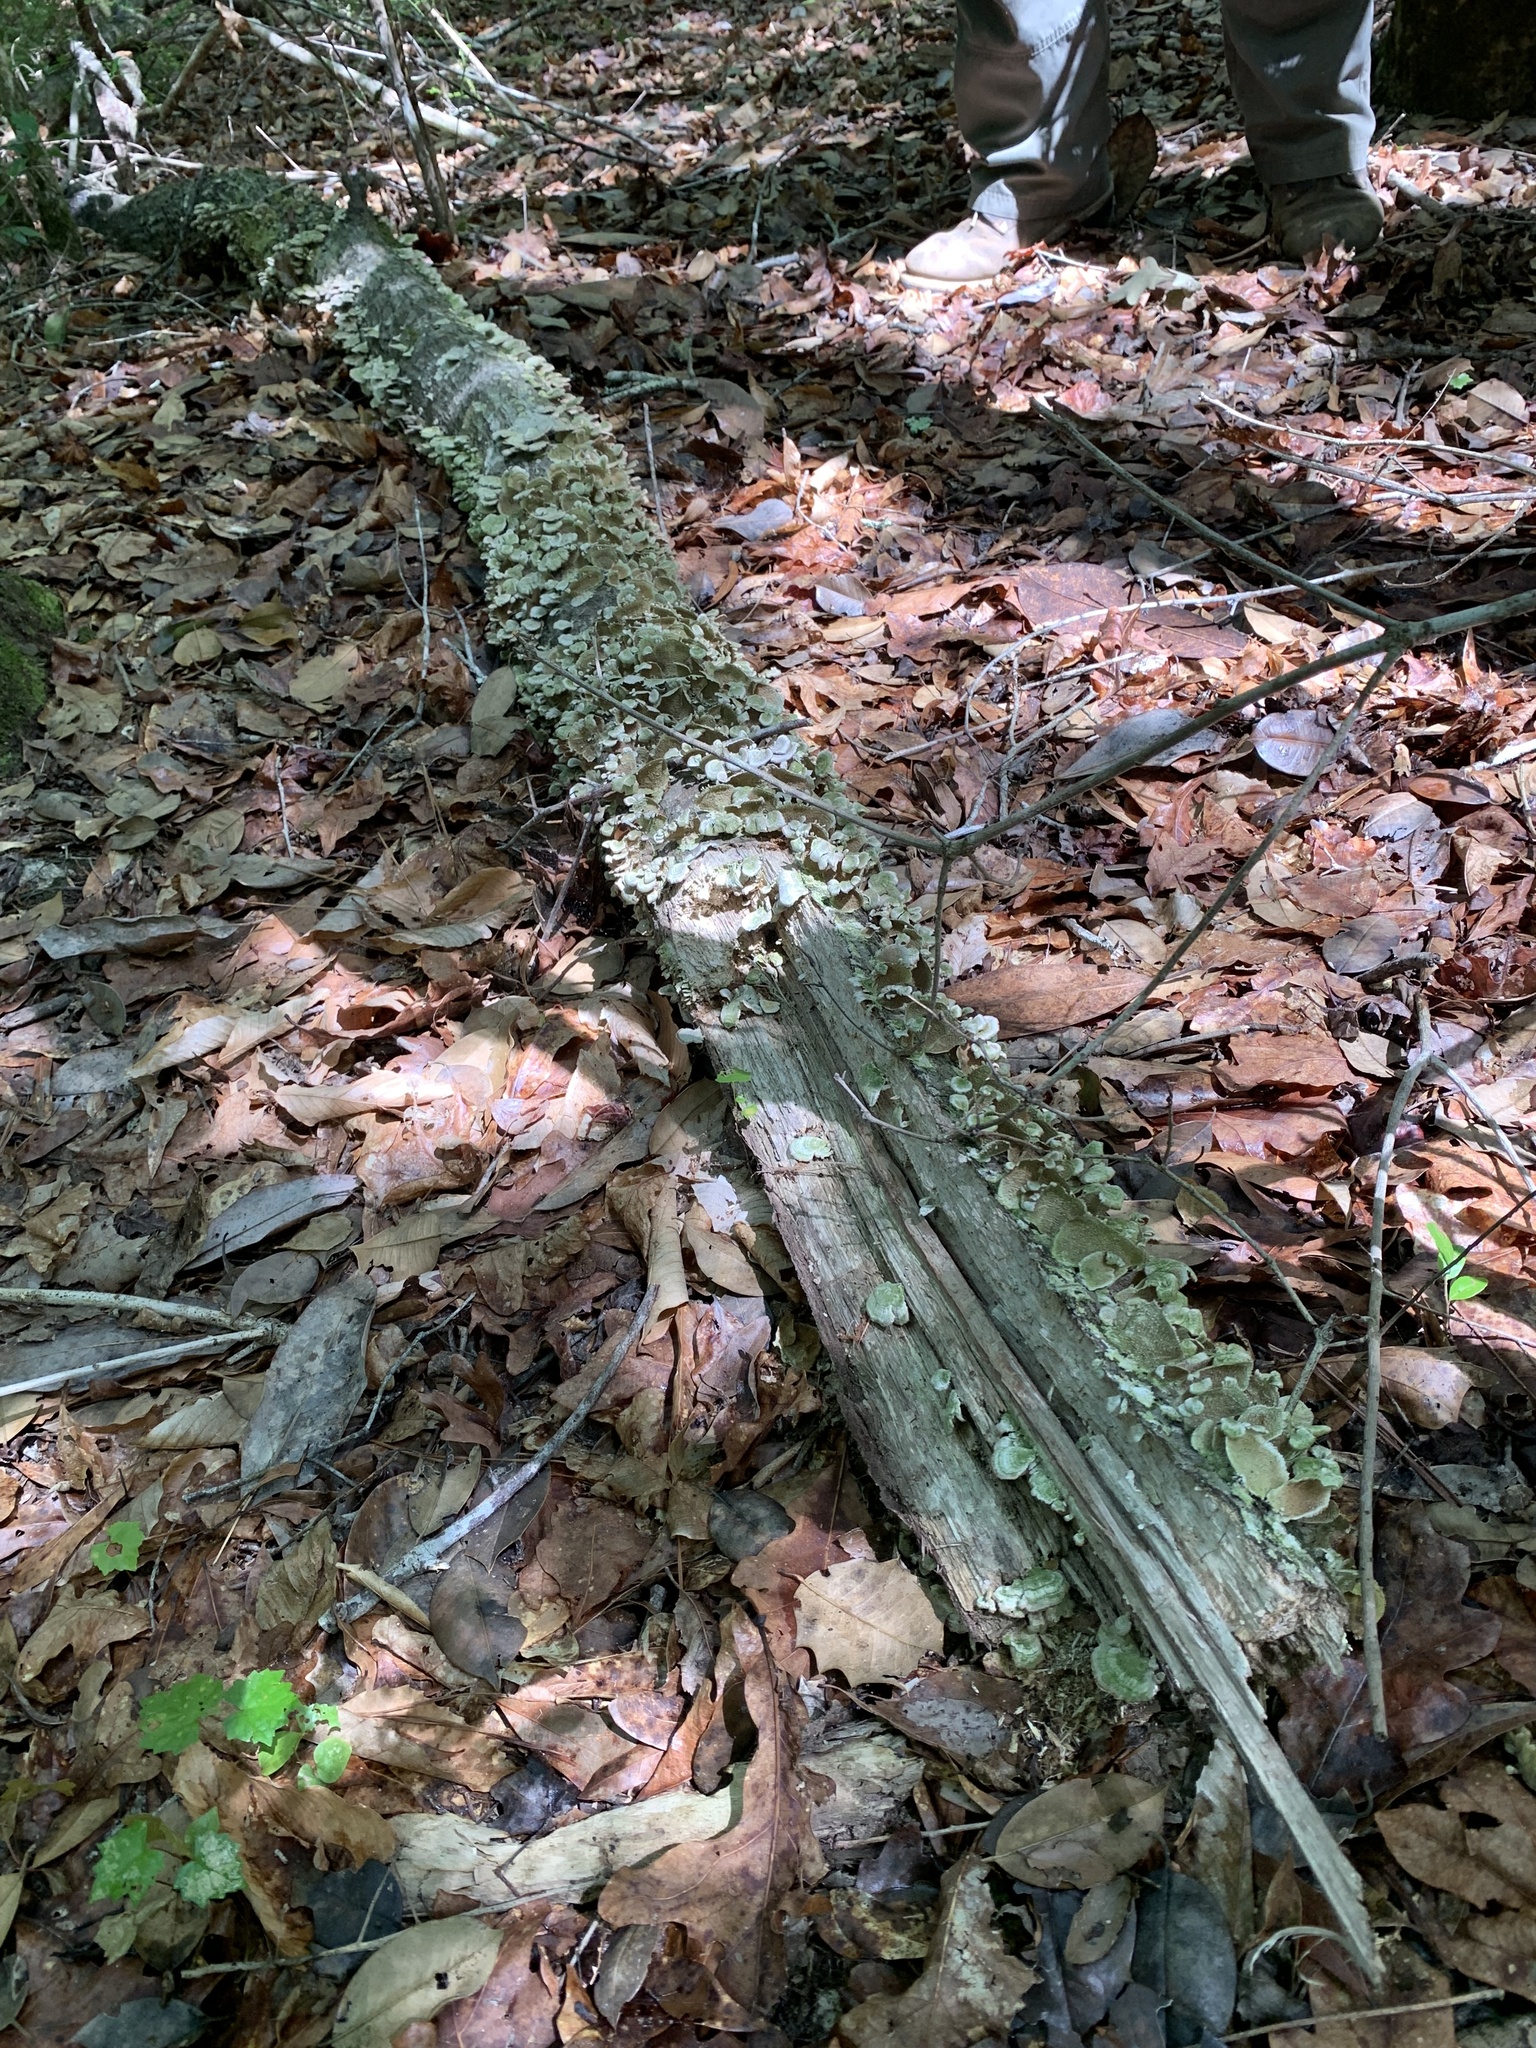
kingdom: Fungi
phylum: Basidiomycota
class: Agaricomycetes
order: Hymenochaetales
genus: Trichaptum
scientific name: Trichaptum biforme
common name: Violet-toothed polypore
